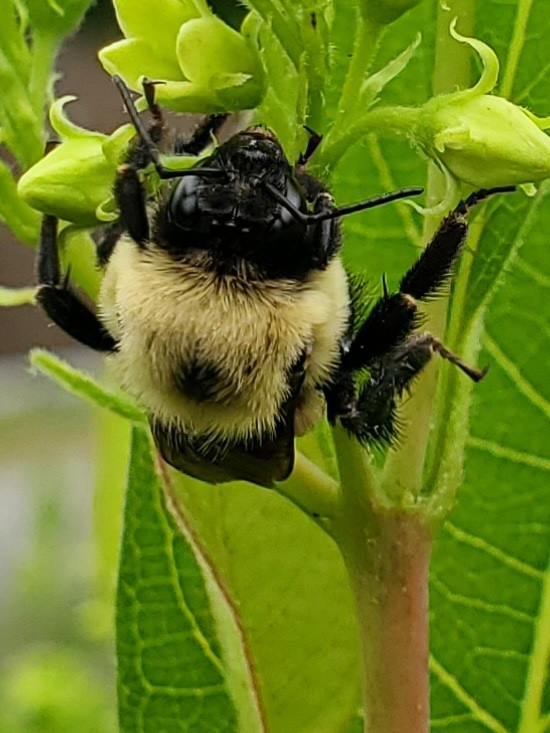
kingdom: Animalia
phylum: Arthropoda
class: Insecta
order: Hymenoptera
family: Apidae
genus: Bombus
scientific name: Bombus griseocollis
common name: Brown-belted bumble bee
